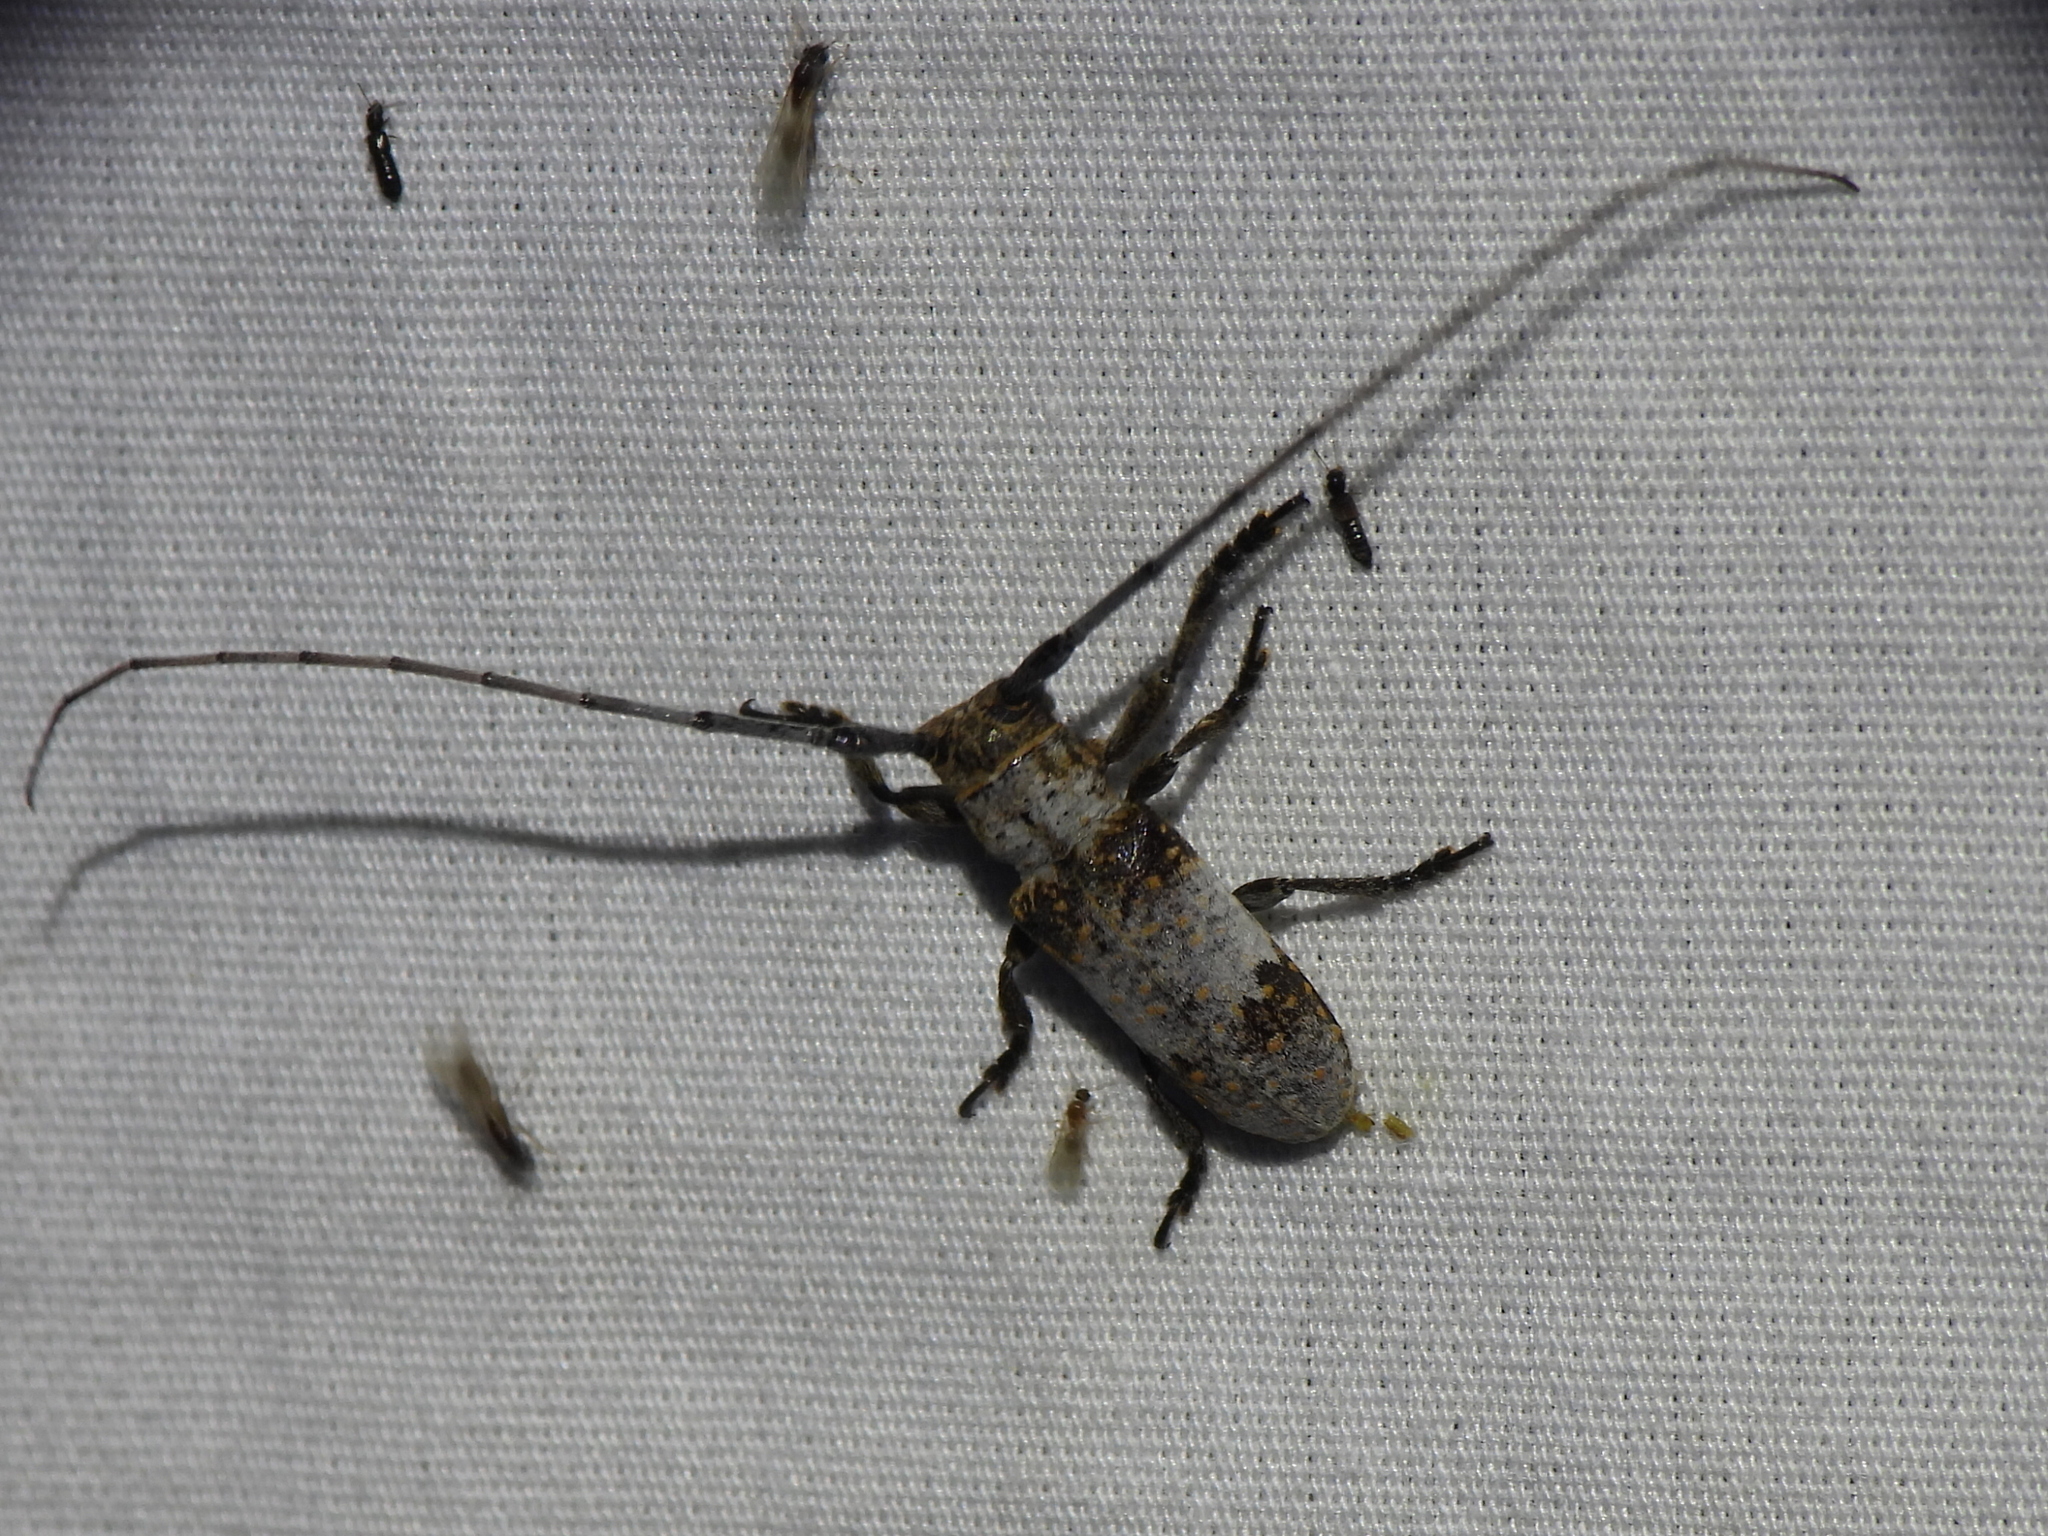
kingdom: Animalia
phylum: Arthropoda
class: Insecta
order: Coleoptera
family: Cerambycidae
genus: Oncideres
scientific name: Oncideres cingulata
